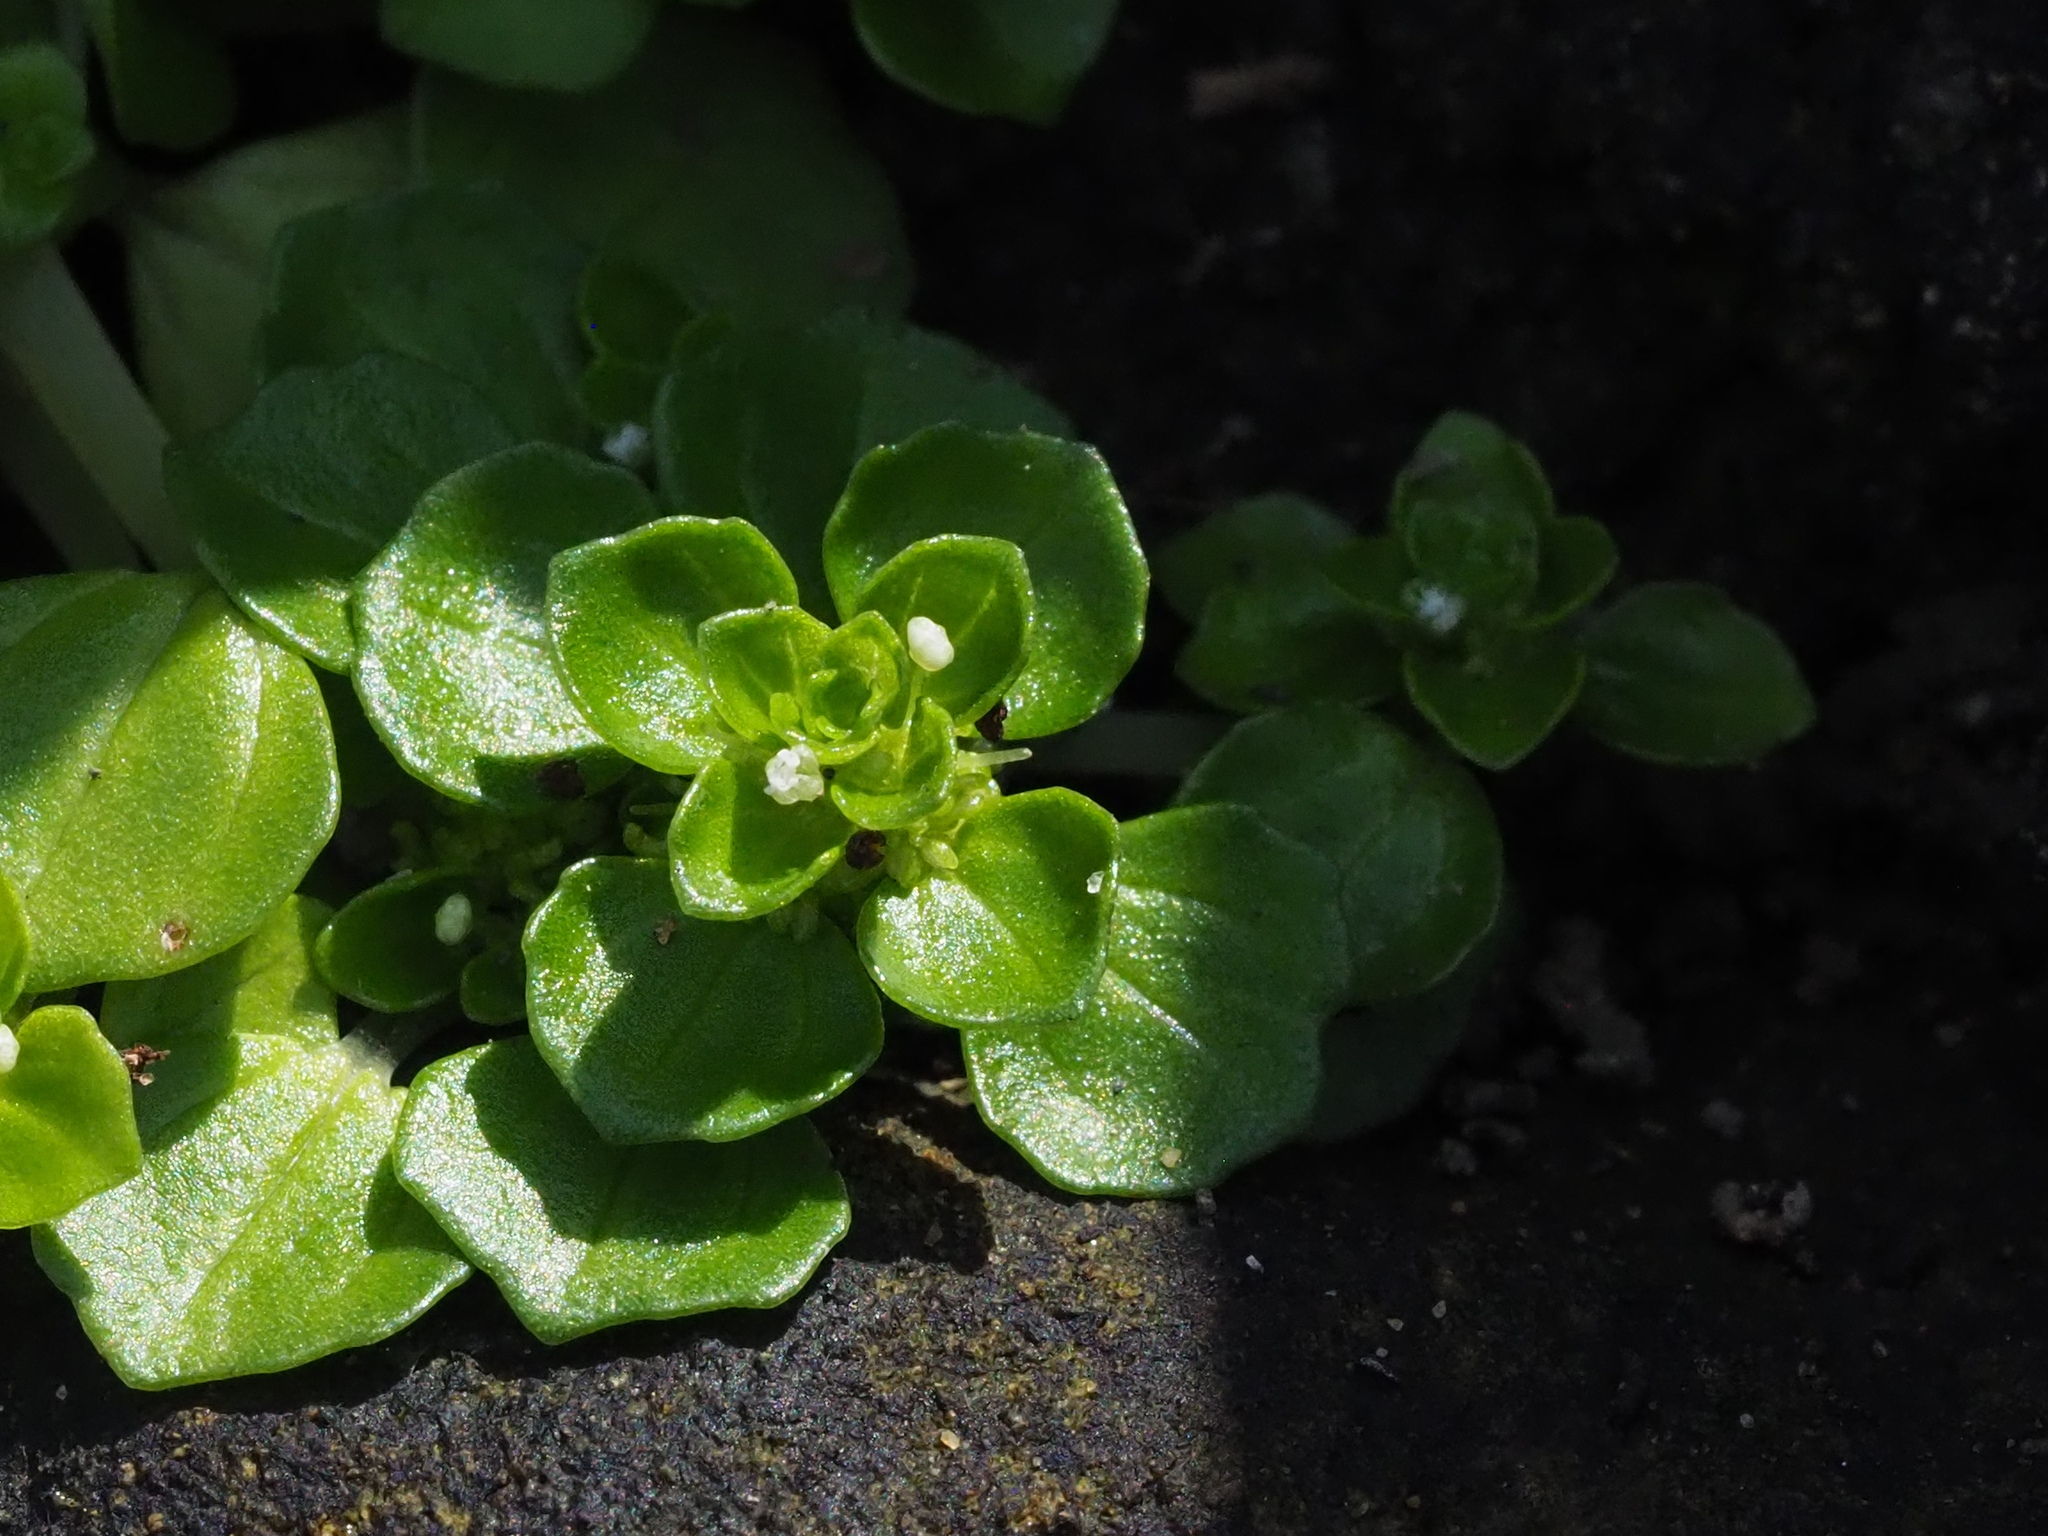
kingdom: Plantae
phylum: Tracheophyta
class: Magnoliopsida
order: Rosales
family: Urticaceae
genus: Pilea
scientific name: Pilea peploides
